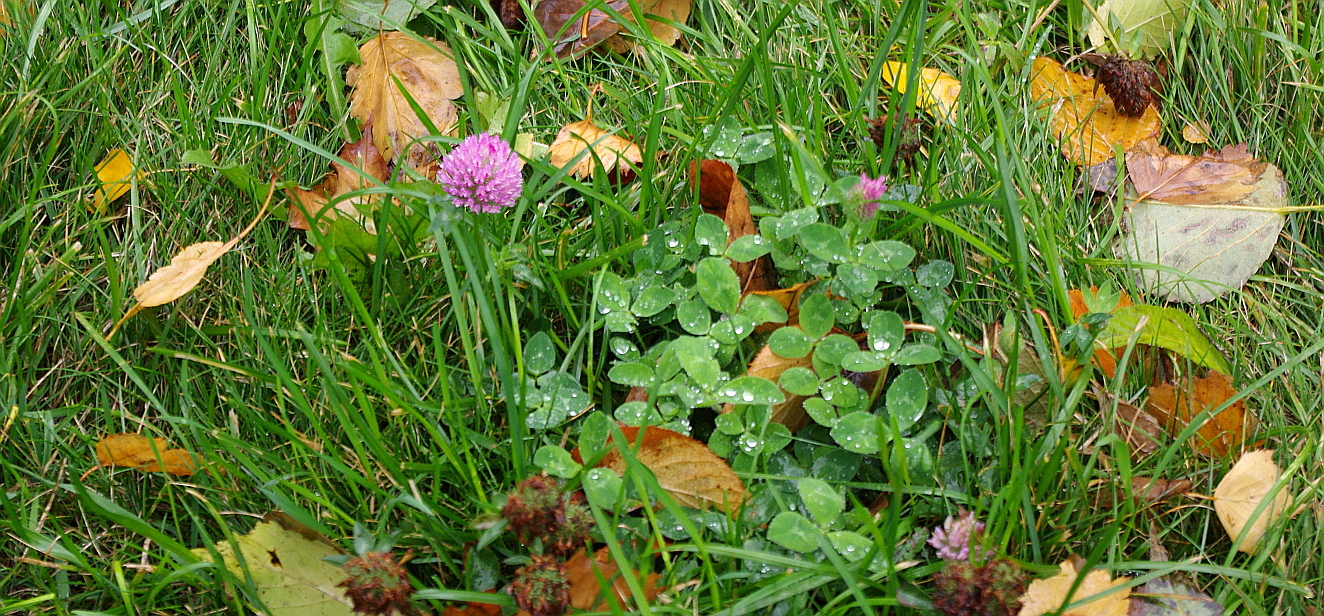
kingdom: Plantae
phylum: Tracheophyta
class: Magnoliopsida
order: Fabales
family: Fabaceae
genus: Trifolium
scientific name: Trifolium pratense
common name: Red clover
